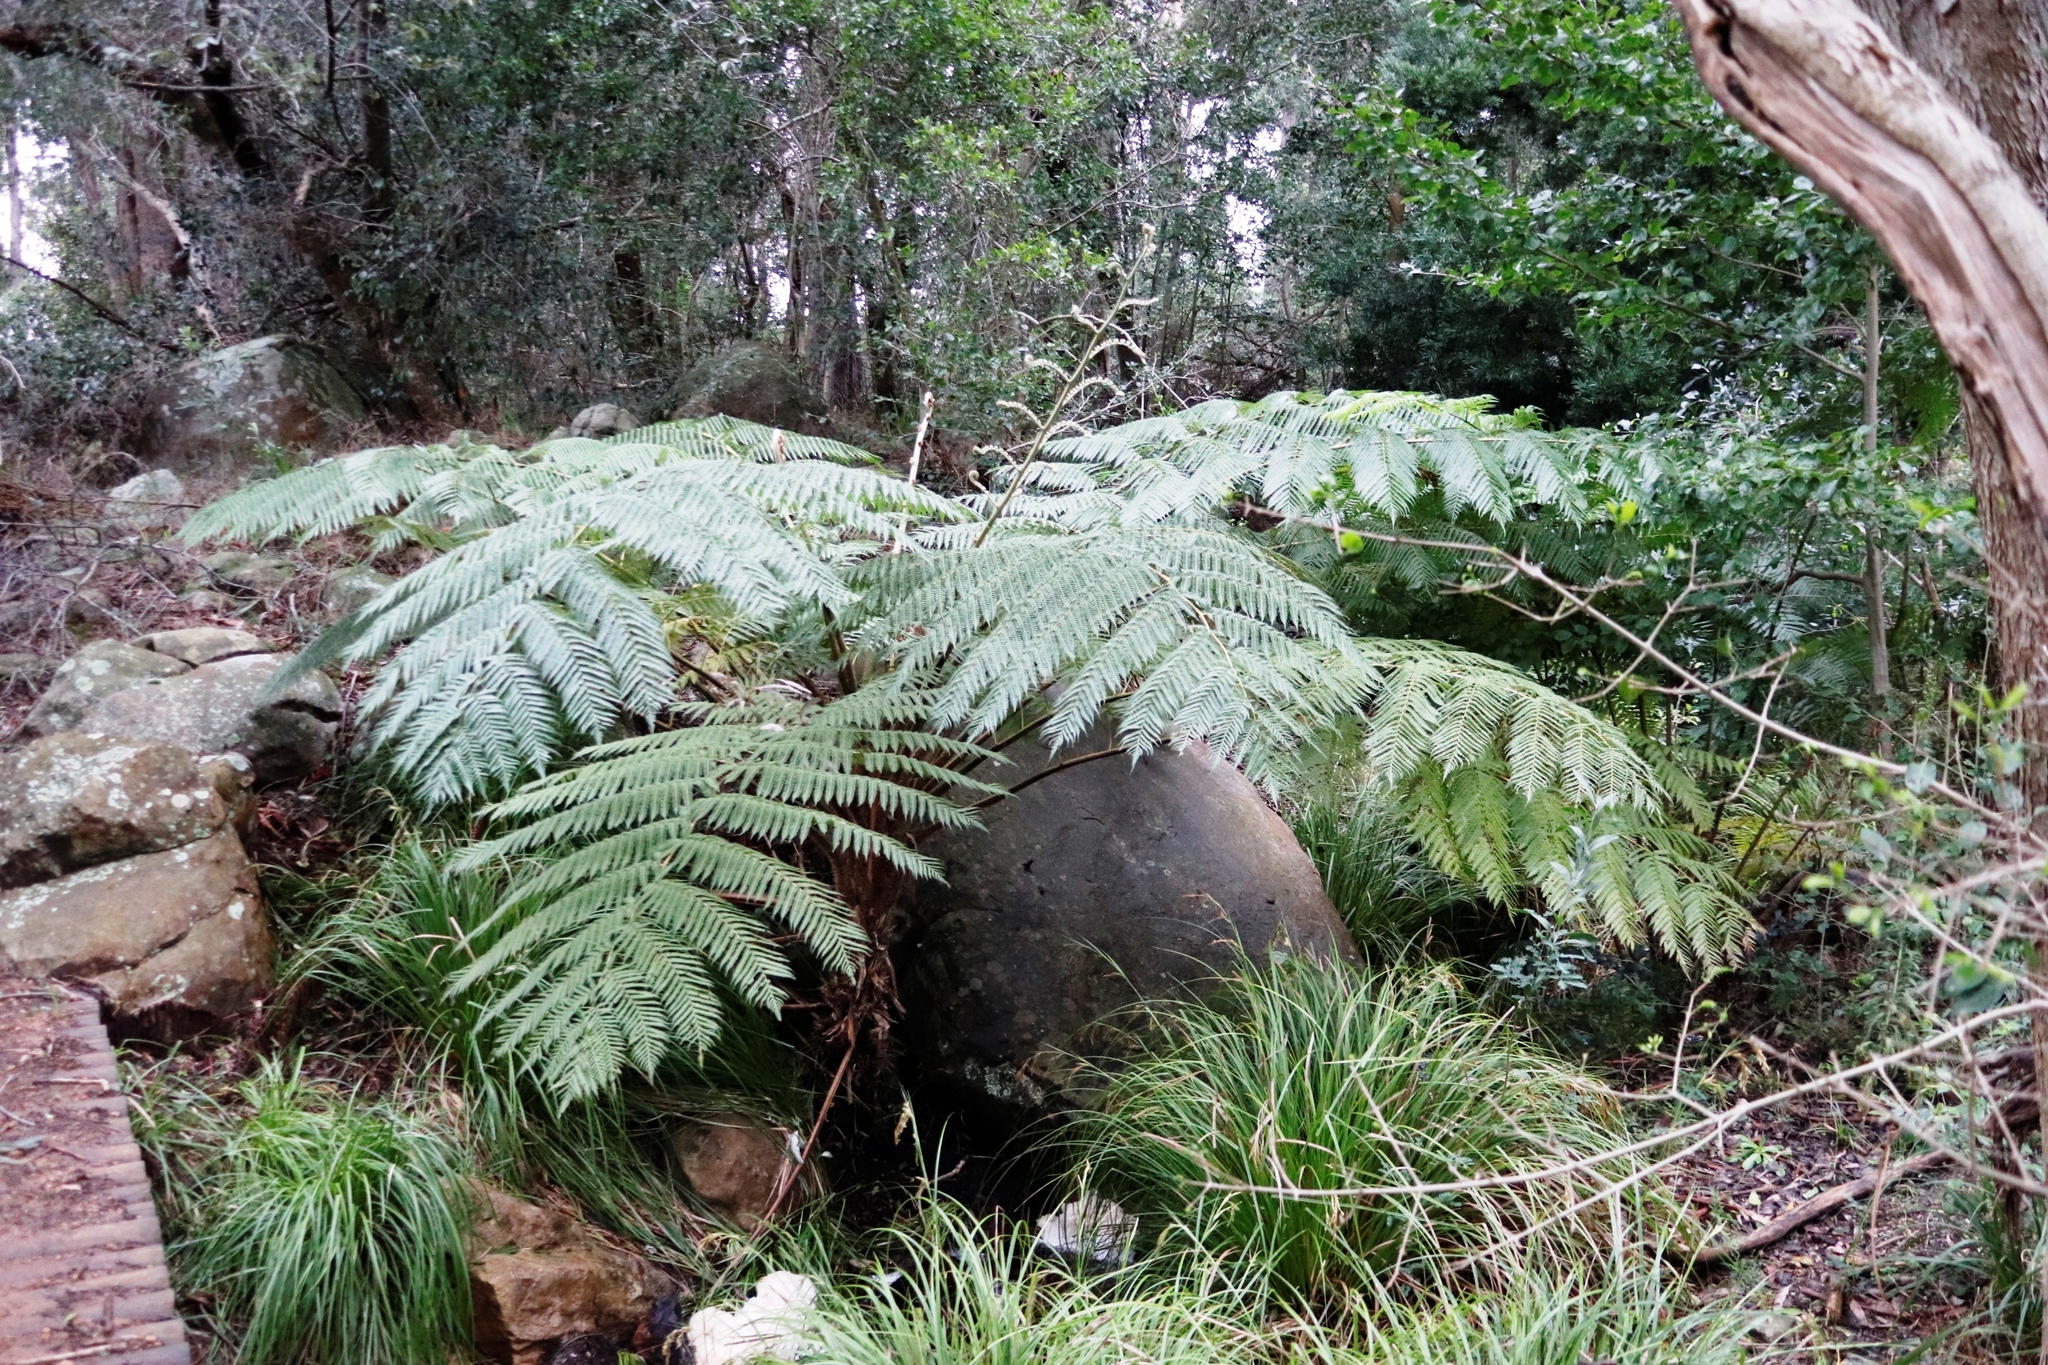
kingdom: Plantae
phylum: Tracheophyta
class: Polypodiopsida
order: Cyatheales
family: Cyatheaceae
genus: Sphaeropteris
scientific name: Sphaeropteris cooperi
